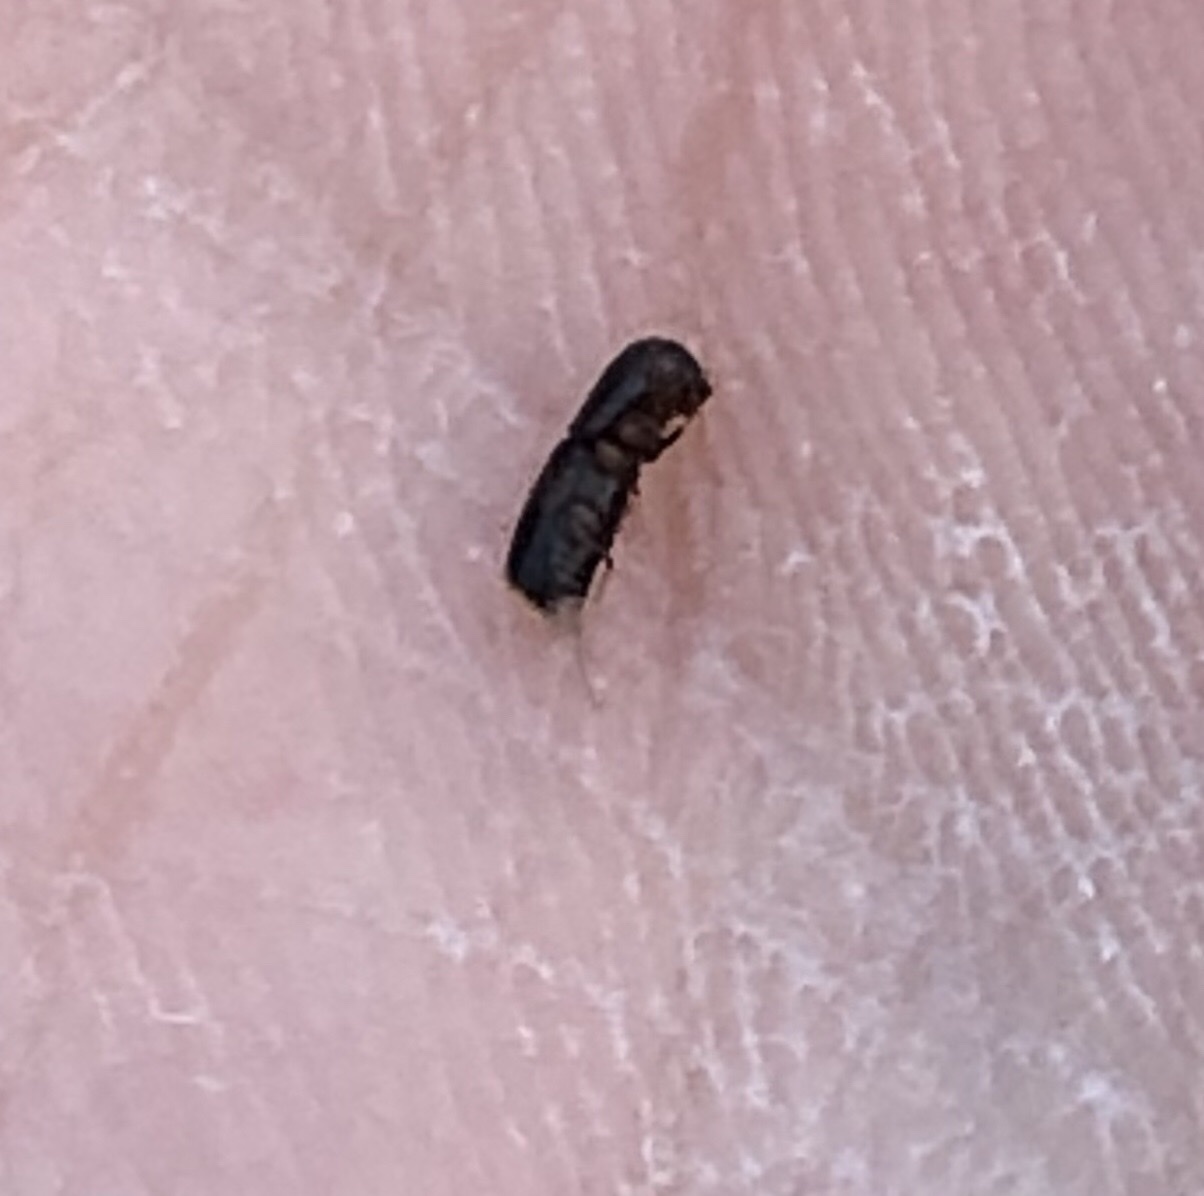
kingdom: Animalia
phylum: Arthropoda
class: Insecta
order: Coleoptera
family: Curculionidae
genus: Monarthrum
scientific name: Monarthrum mali
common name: Bark beetle
